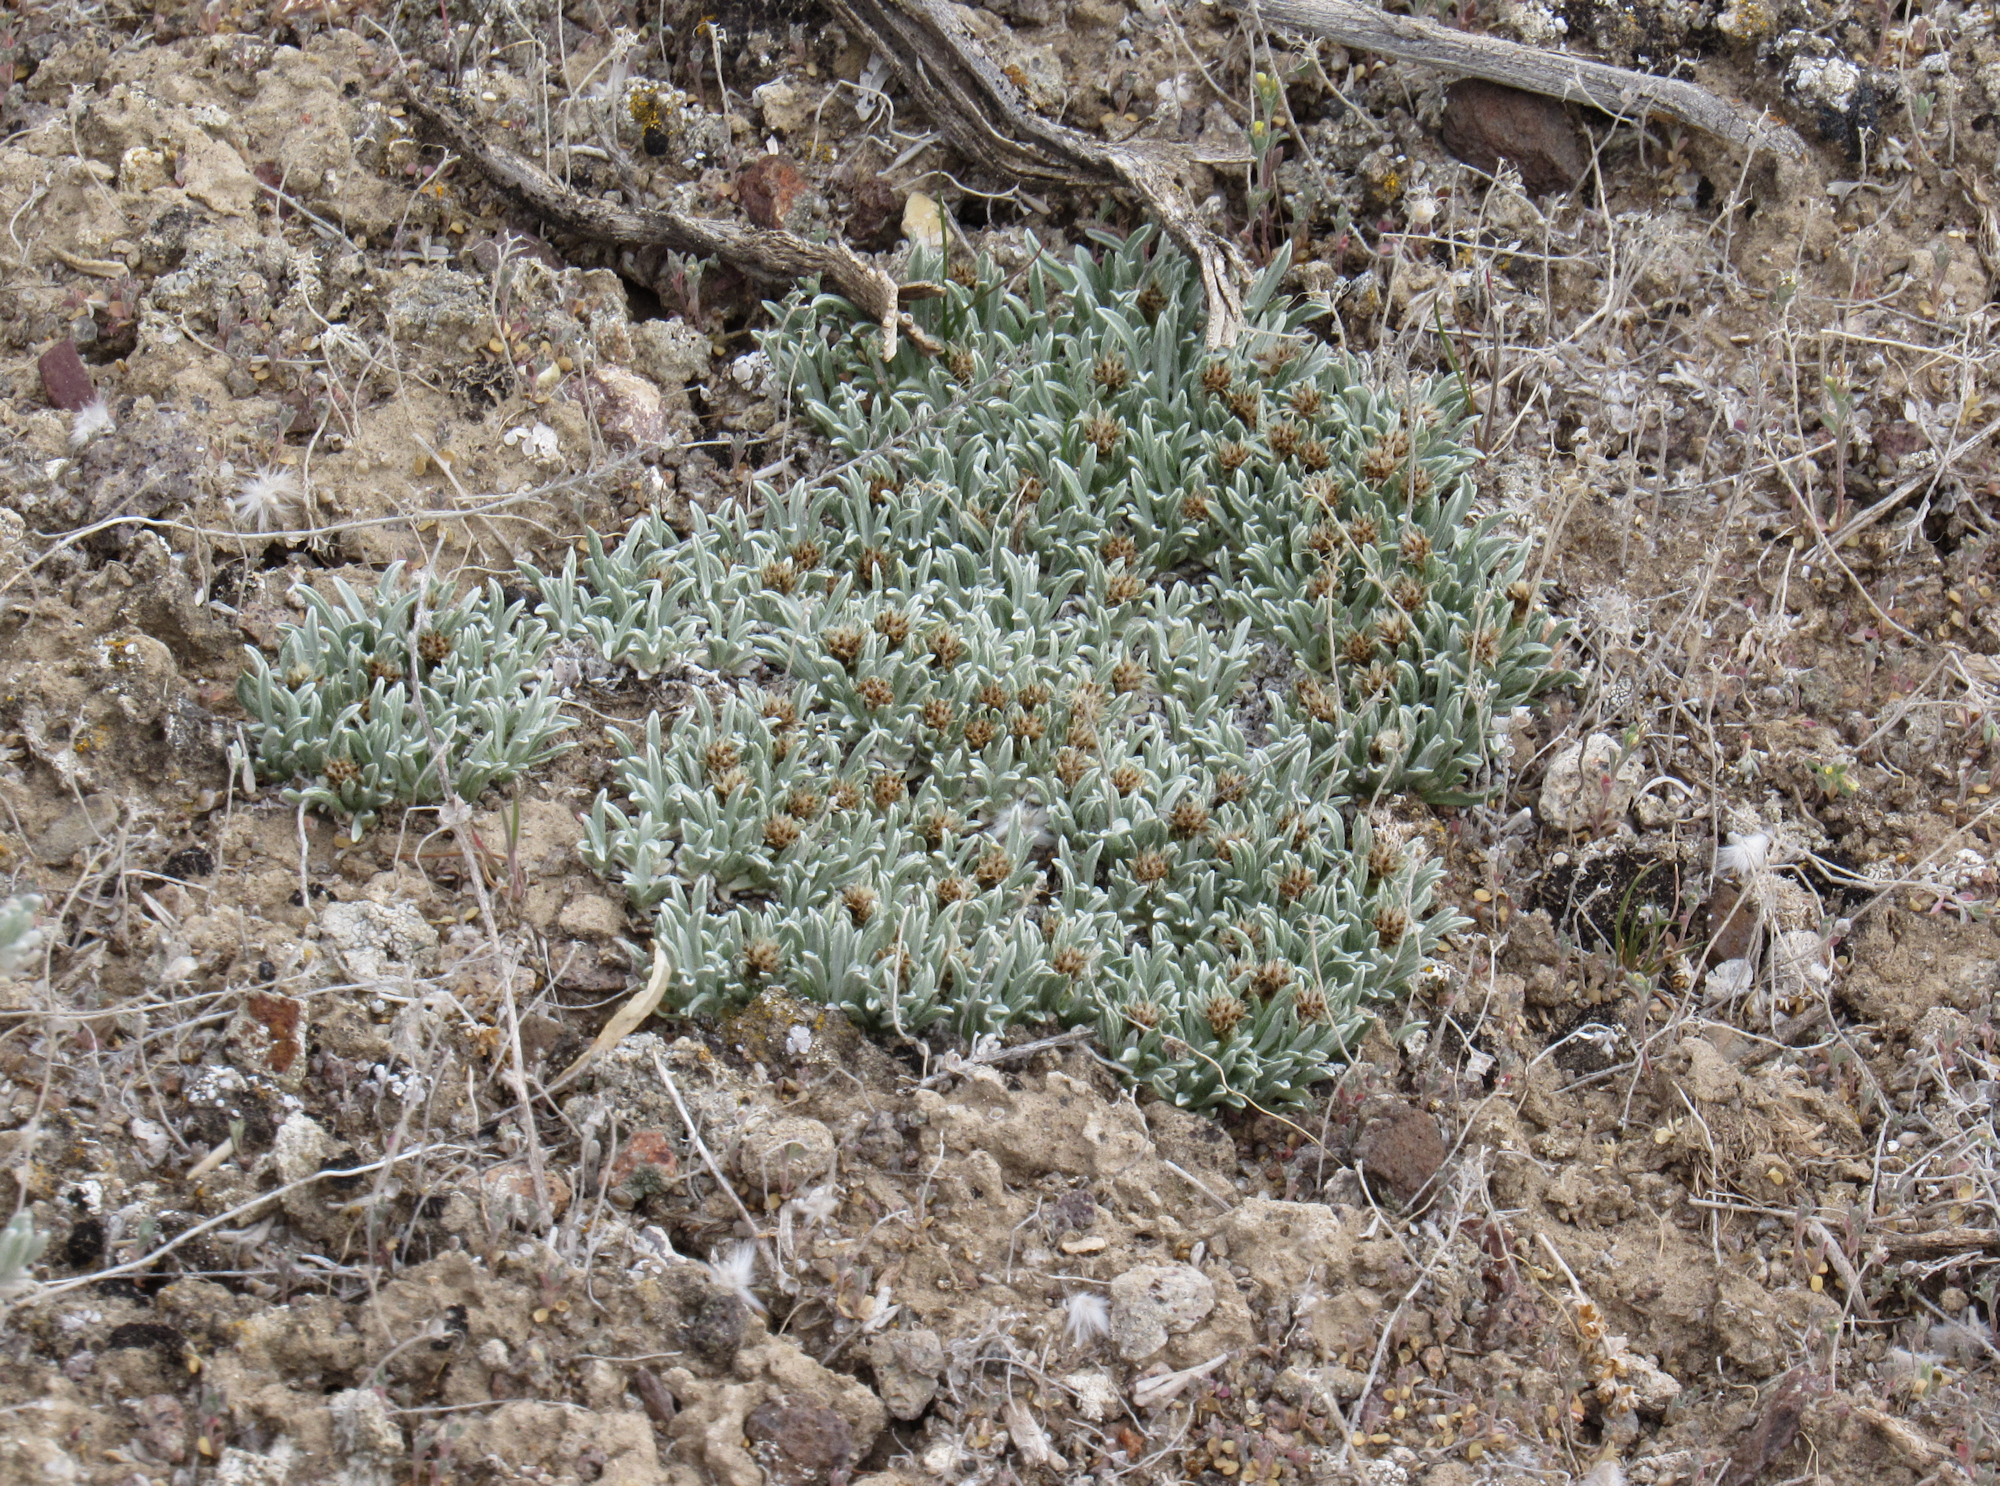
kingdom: Plantae
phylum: Tracheophyta
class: Magnoliopsida
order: Asterales
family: Asteraceae
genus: Antennaria
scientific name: Antennaria dimorpha
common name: Cushion pussytoes
